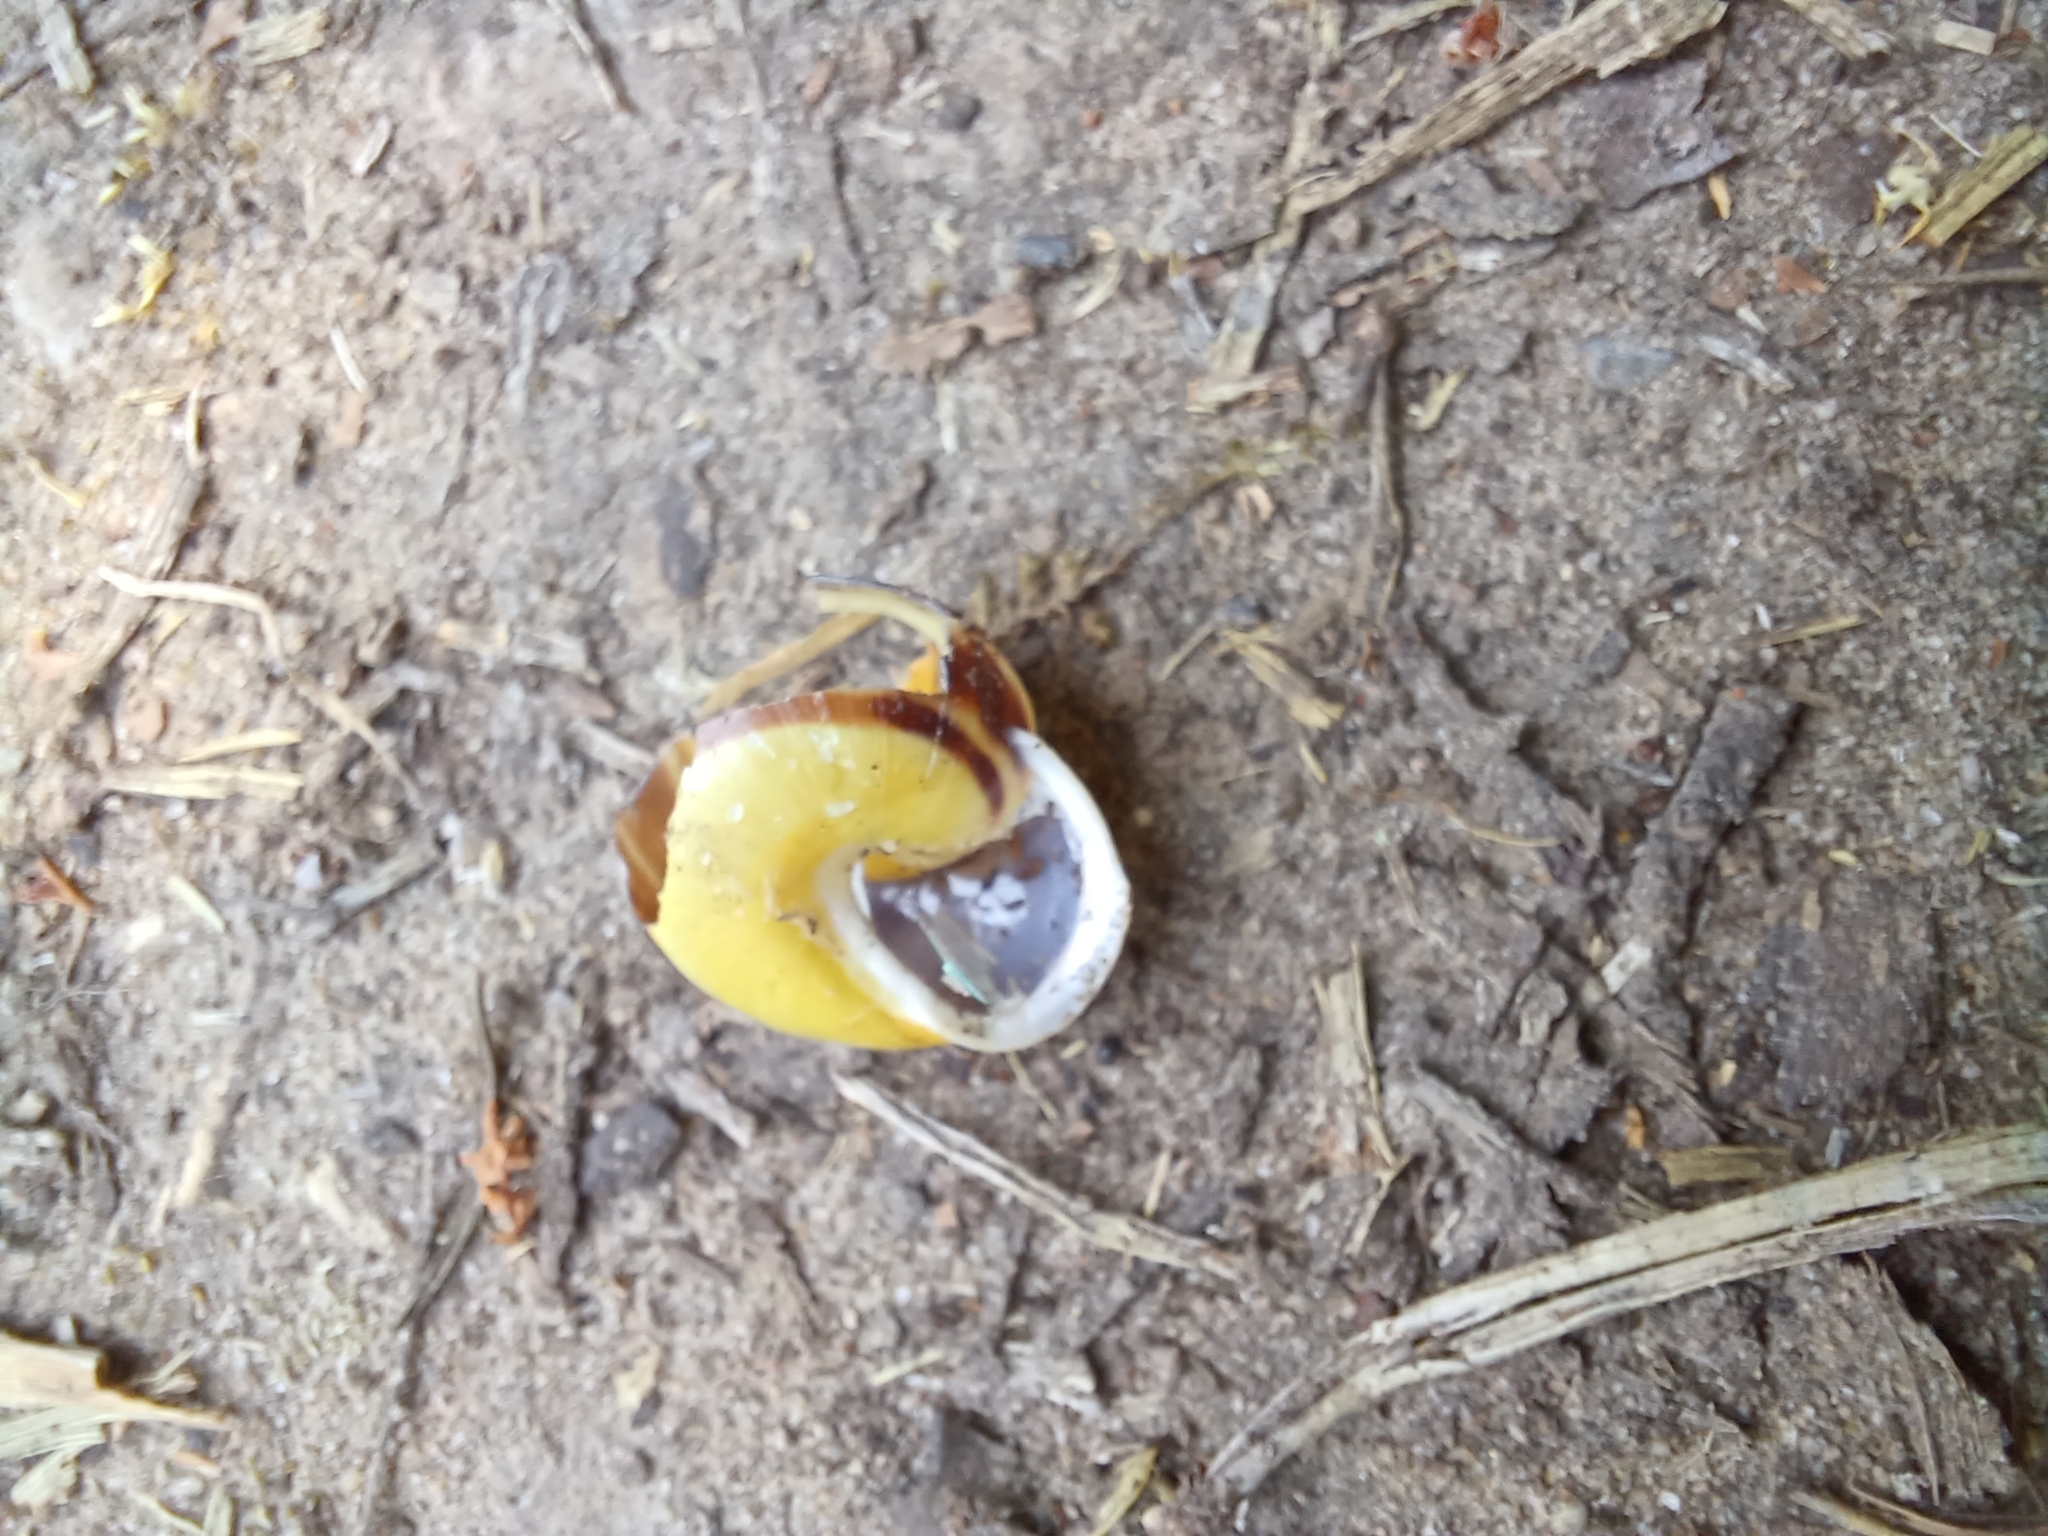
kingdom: Animalia
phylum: Mollusca
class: Gastropoda
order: Stylommatophora
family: Helicidae
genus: Cepaea
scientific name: Cepaea hortensis
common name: White-lip gardensnail
